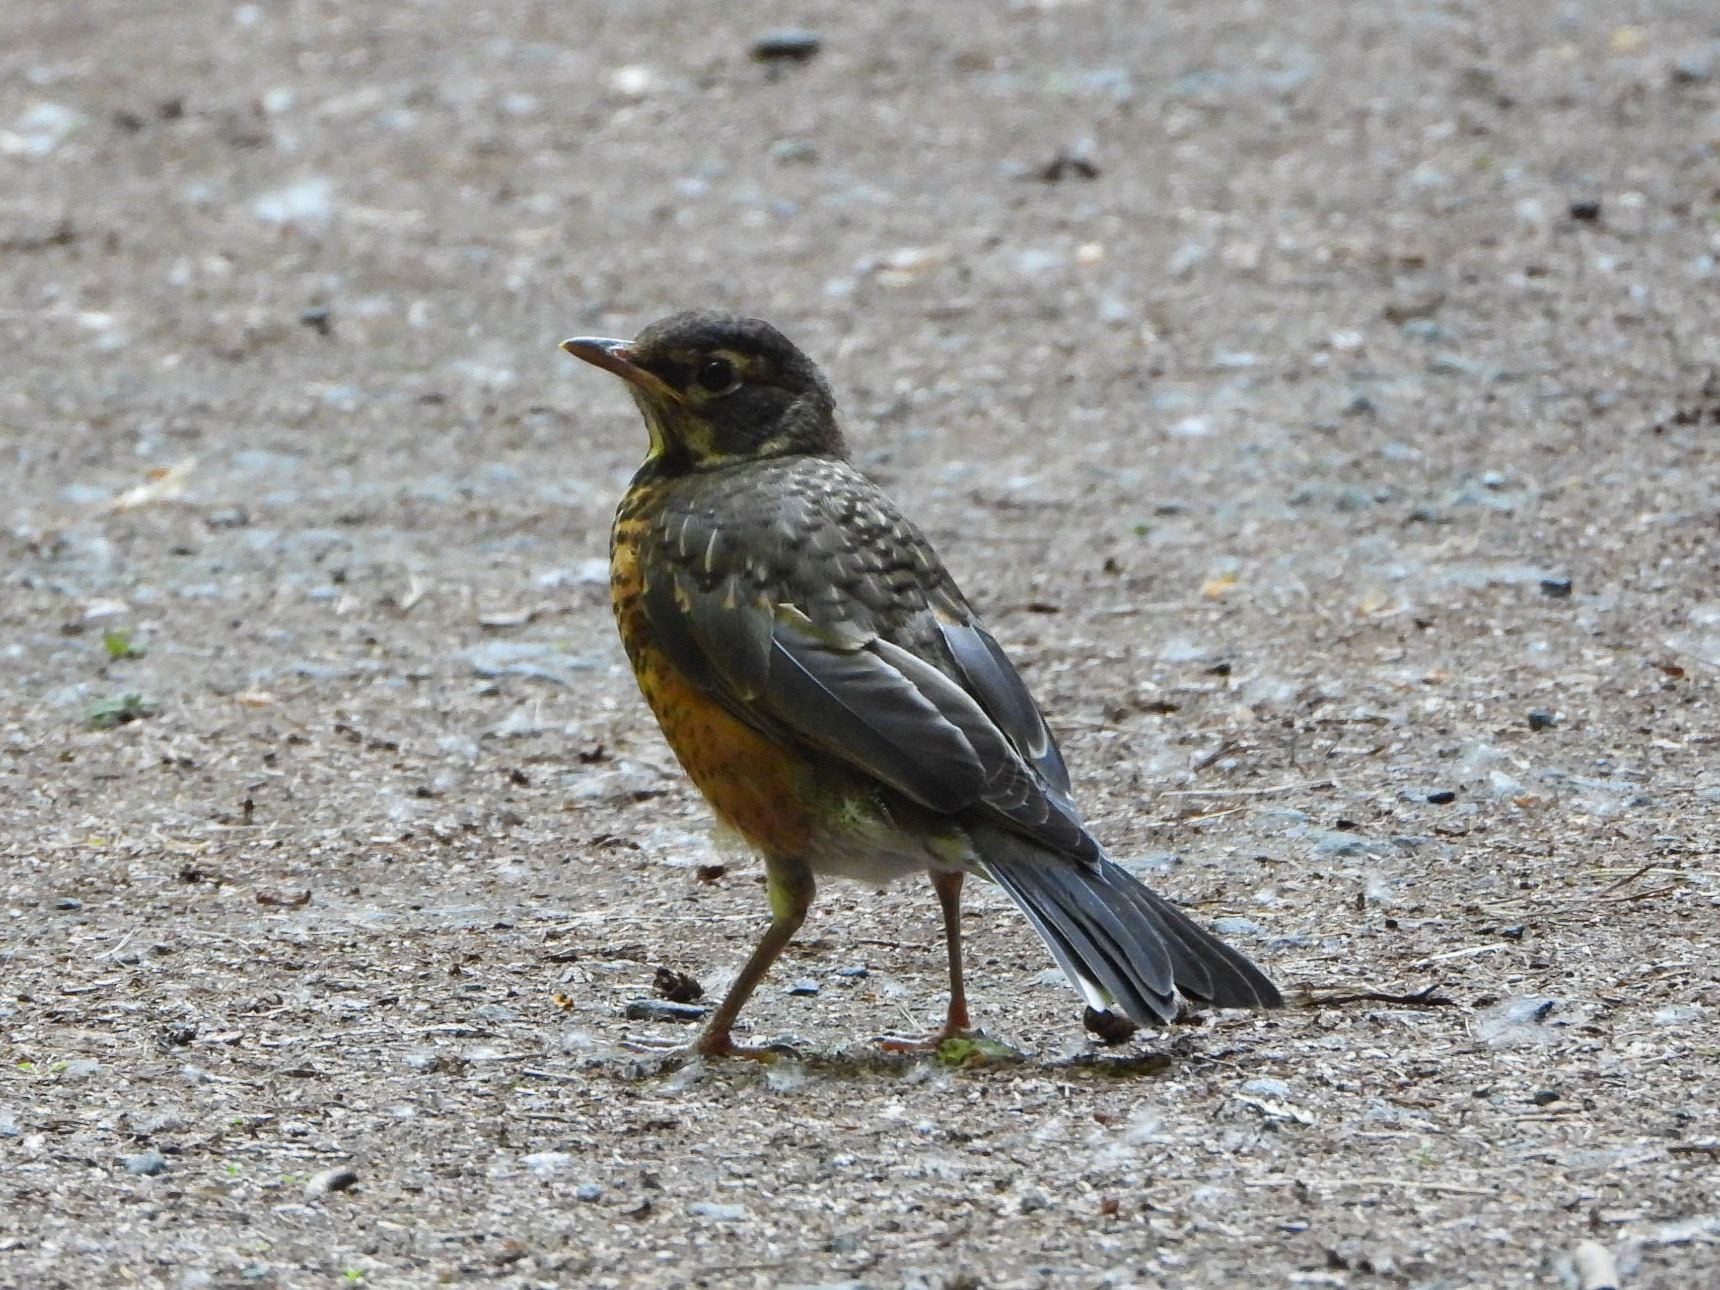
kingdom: Animalia
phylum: Chordata
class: Aves
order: Passeriformes
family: Turdidae
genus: Turdus
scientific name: Turdus migratorius
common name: American robin
